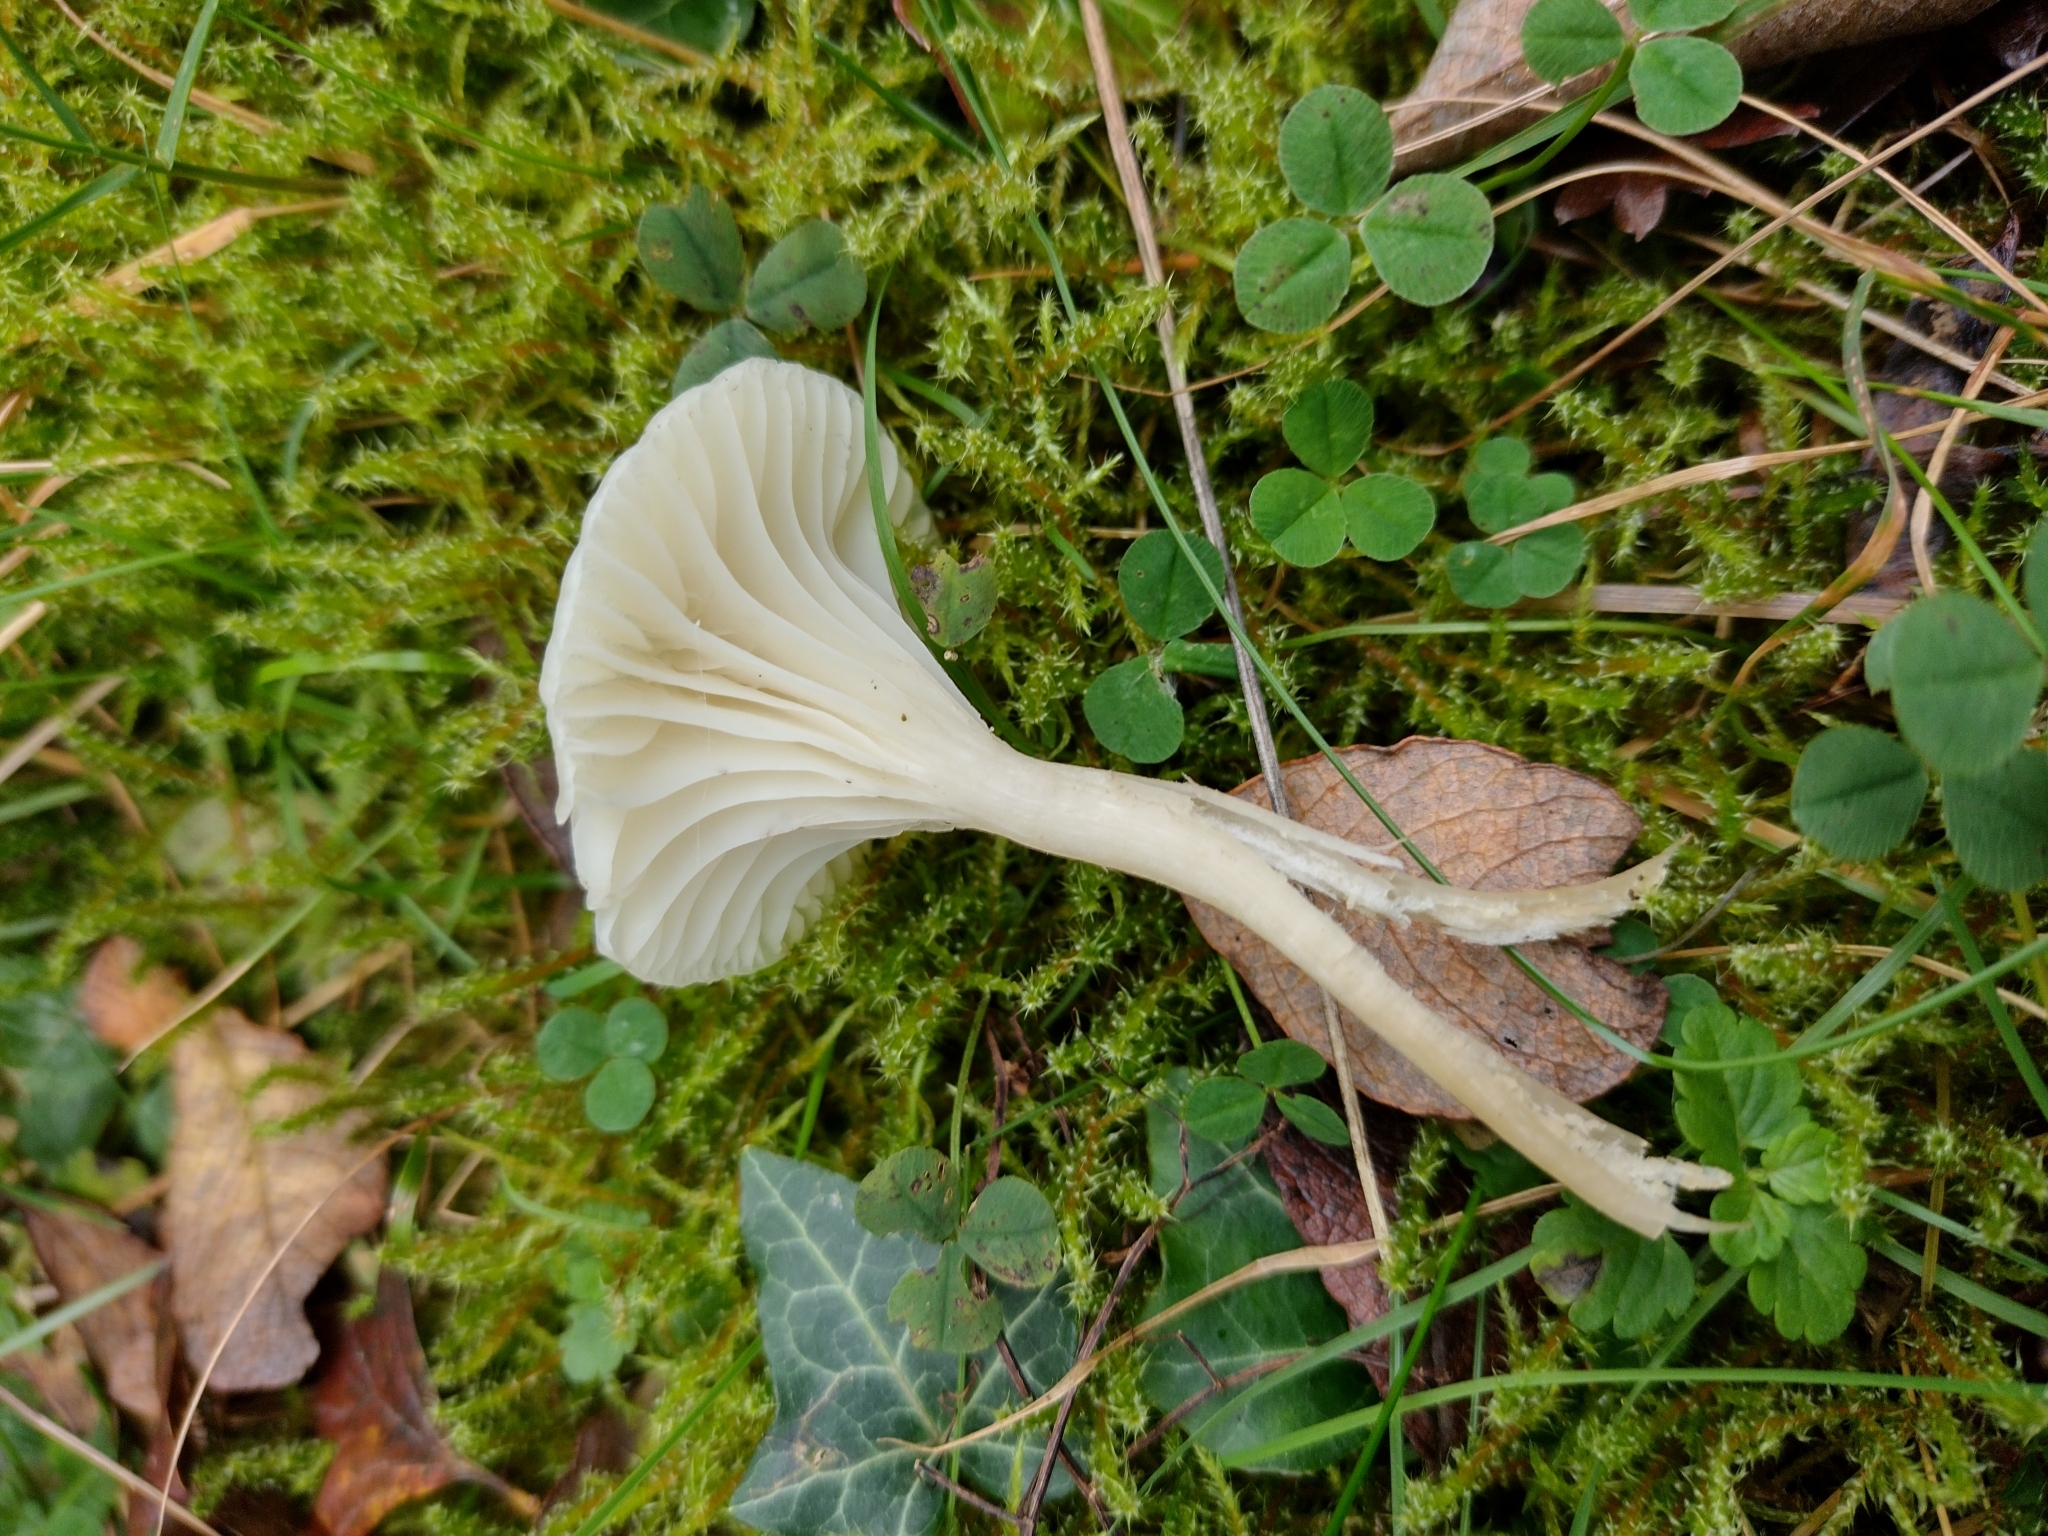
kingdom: Fungi
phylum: Basidiomycota
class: Agaricomycetes
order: Agaricales
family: Hygrophoraceae
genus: Cuphophyllus
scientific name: Cuphophyllus virgineus
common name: Snowy waxcap
